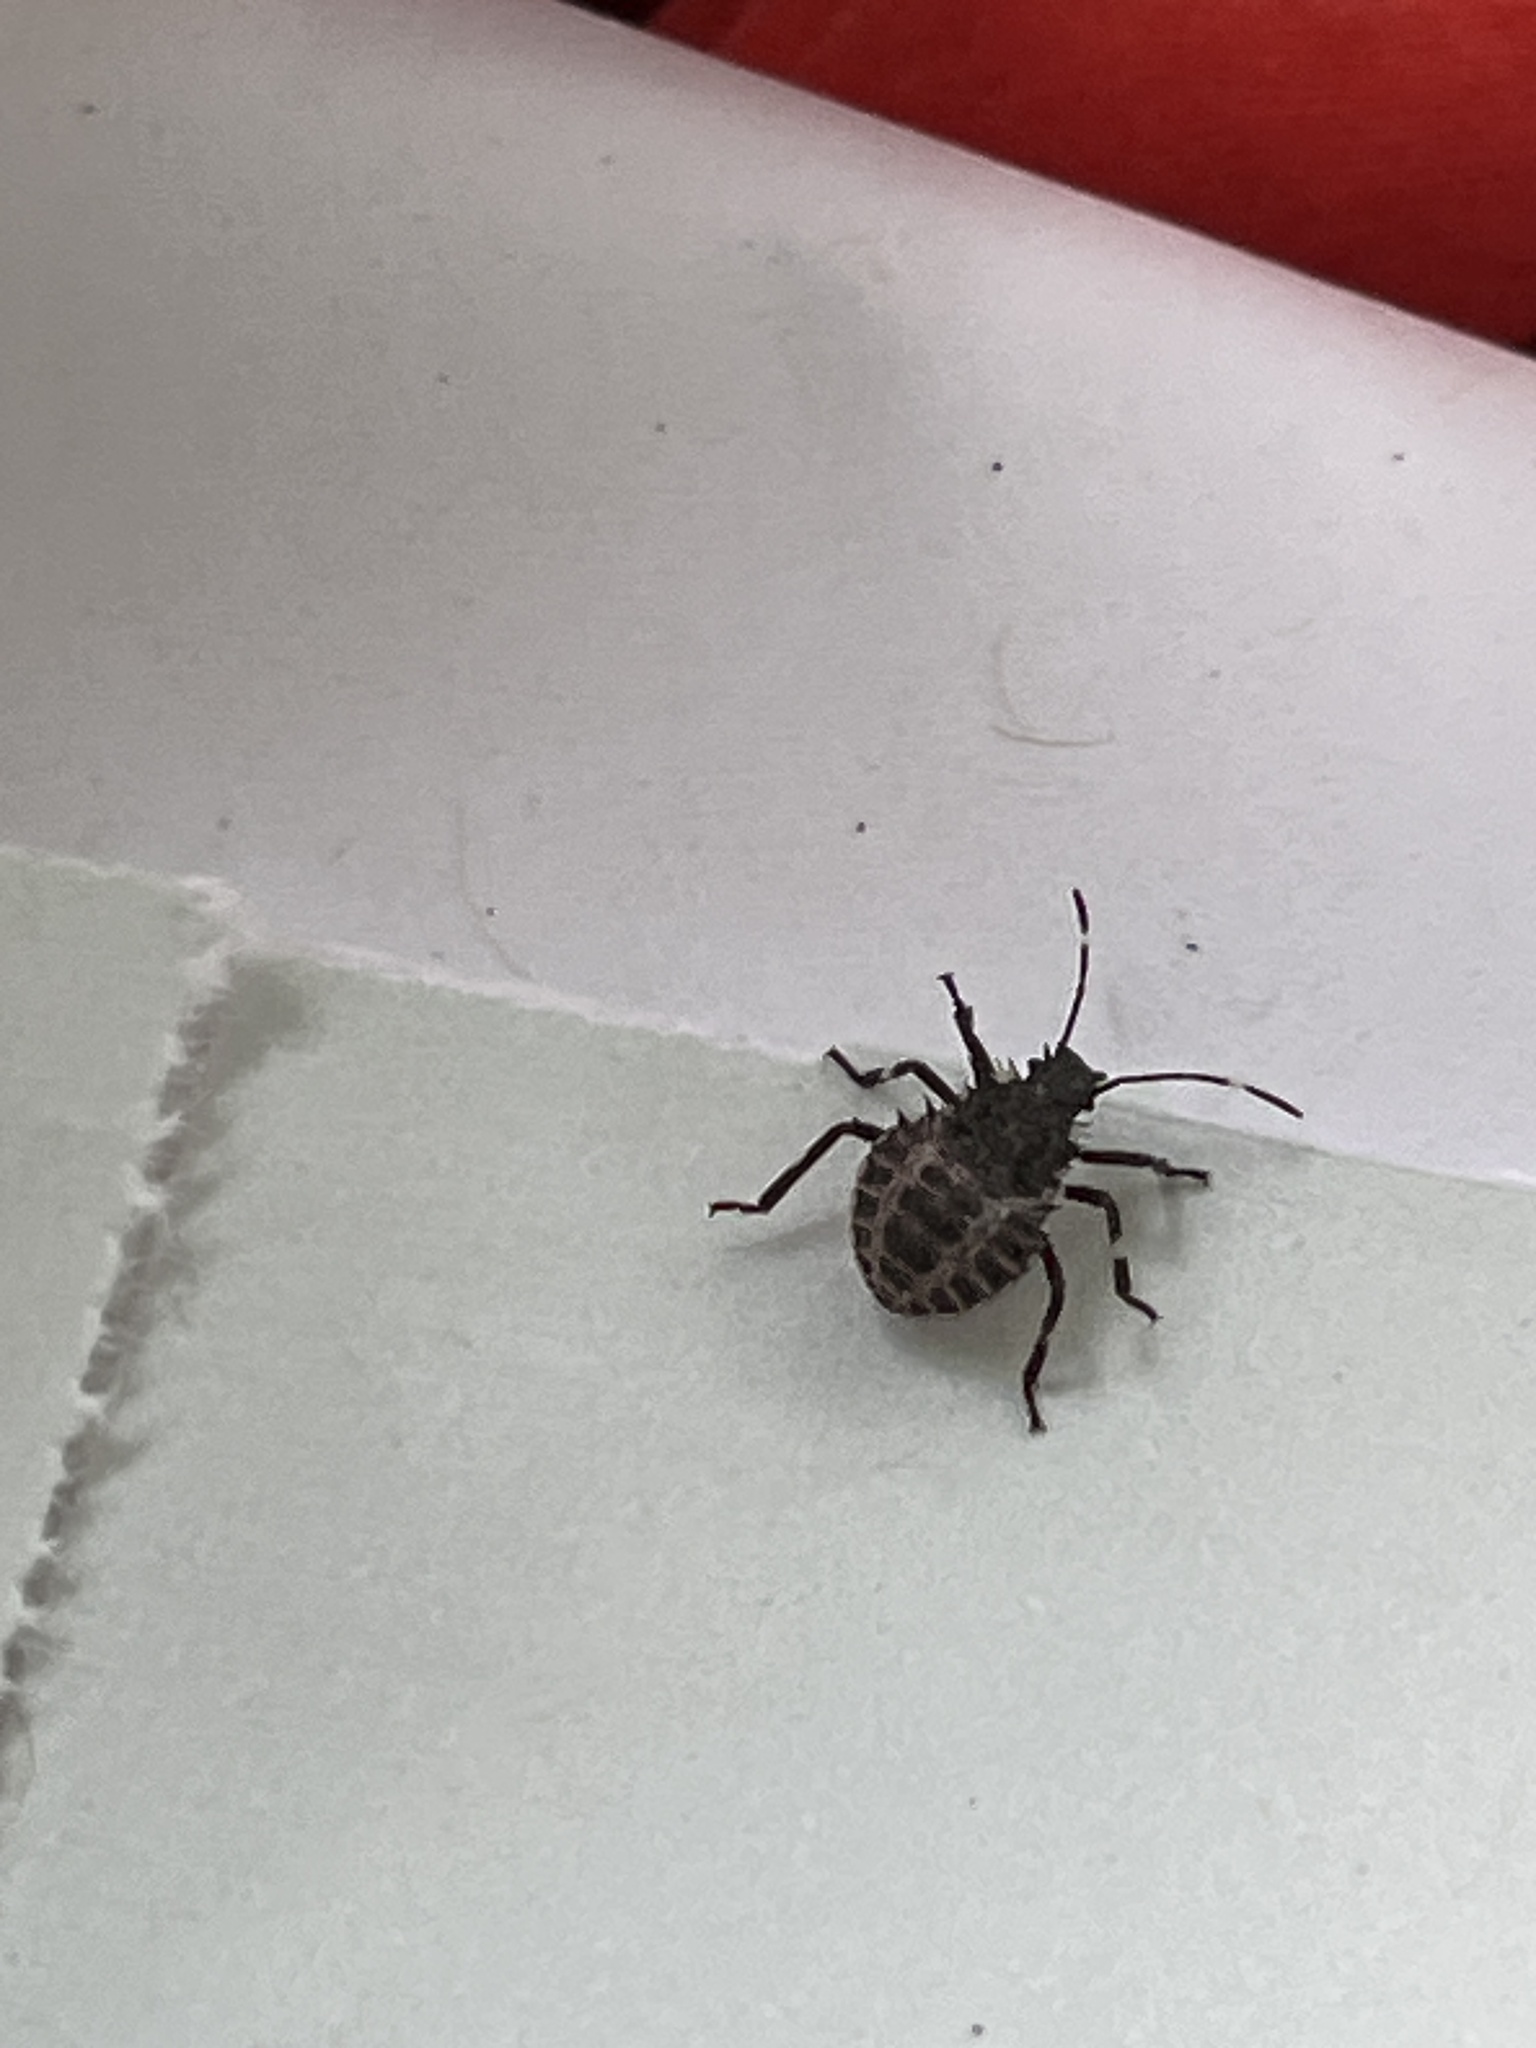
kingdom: Animalia
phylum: Arthropoda
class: Insecta
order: Hemiptera
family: Pentatomidae
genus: Halyomorpha
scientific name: Halyomorpha halys
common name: Brown marmorated stink bug
